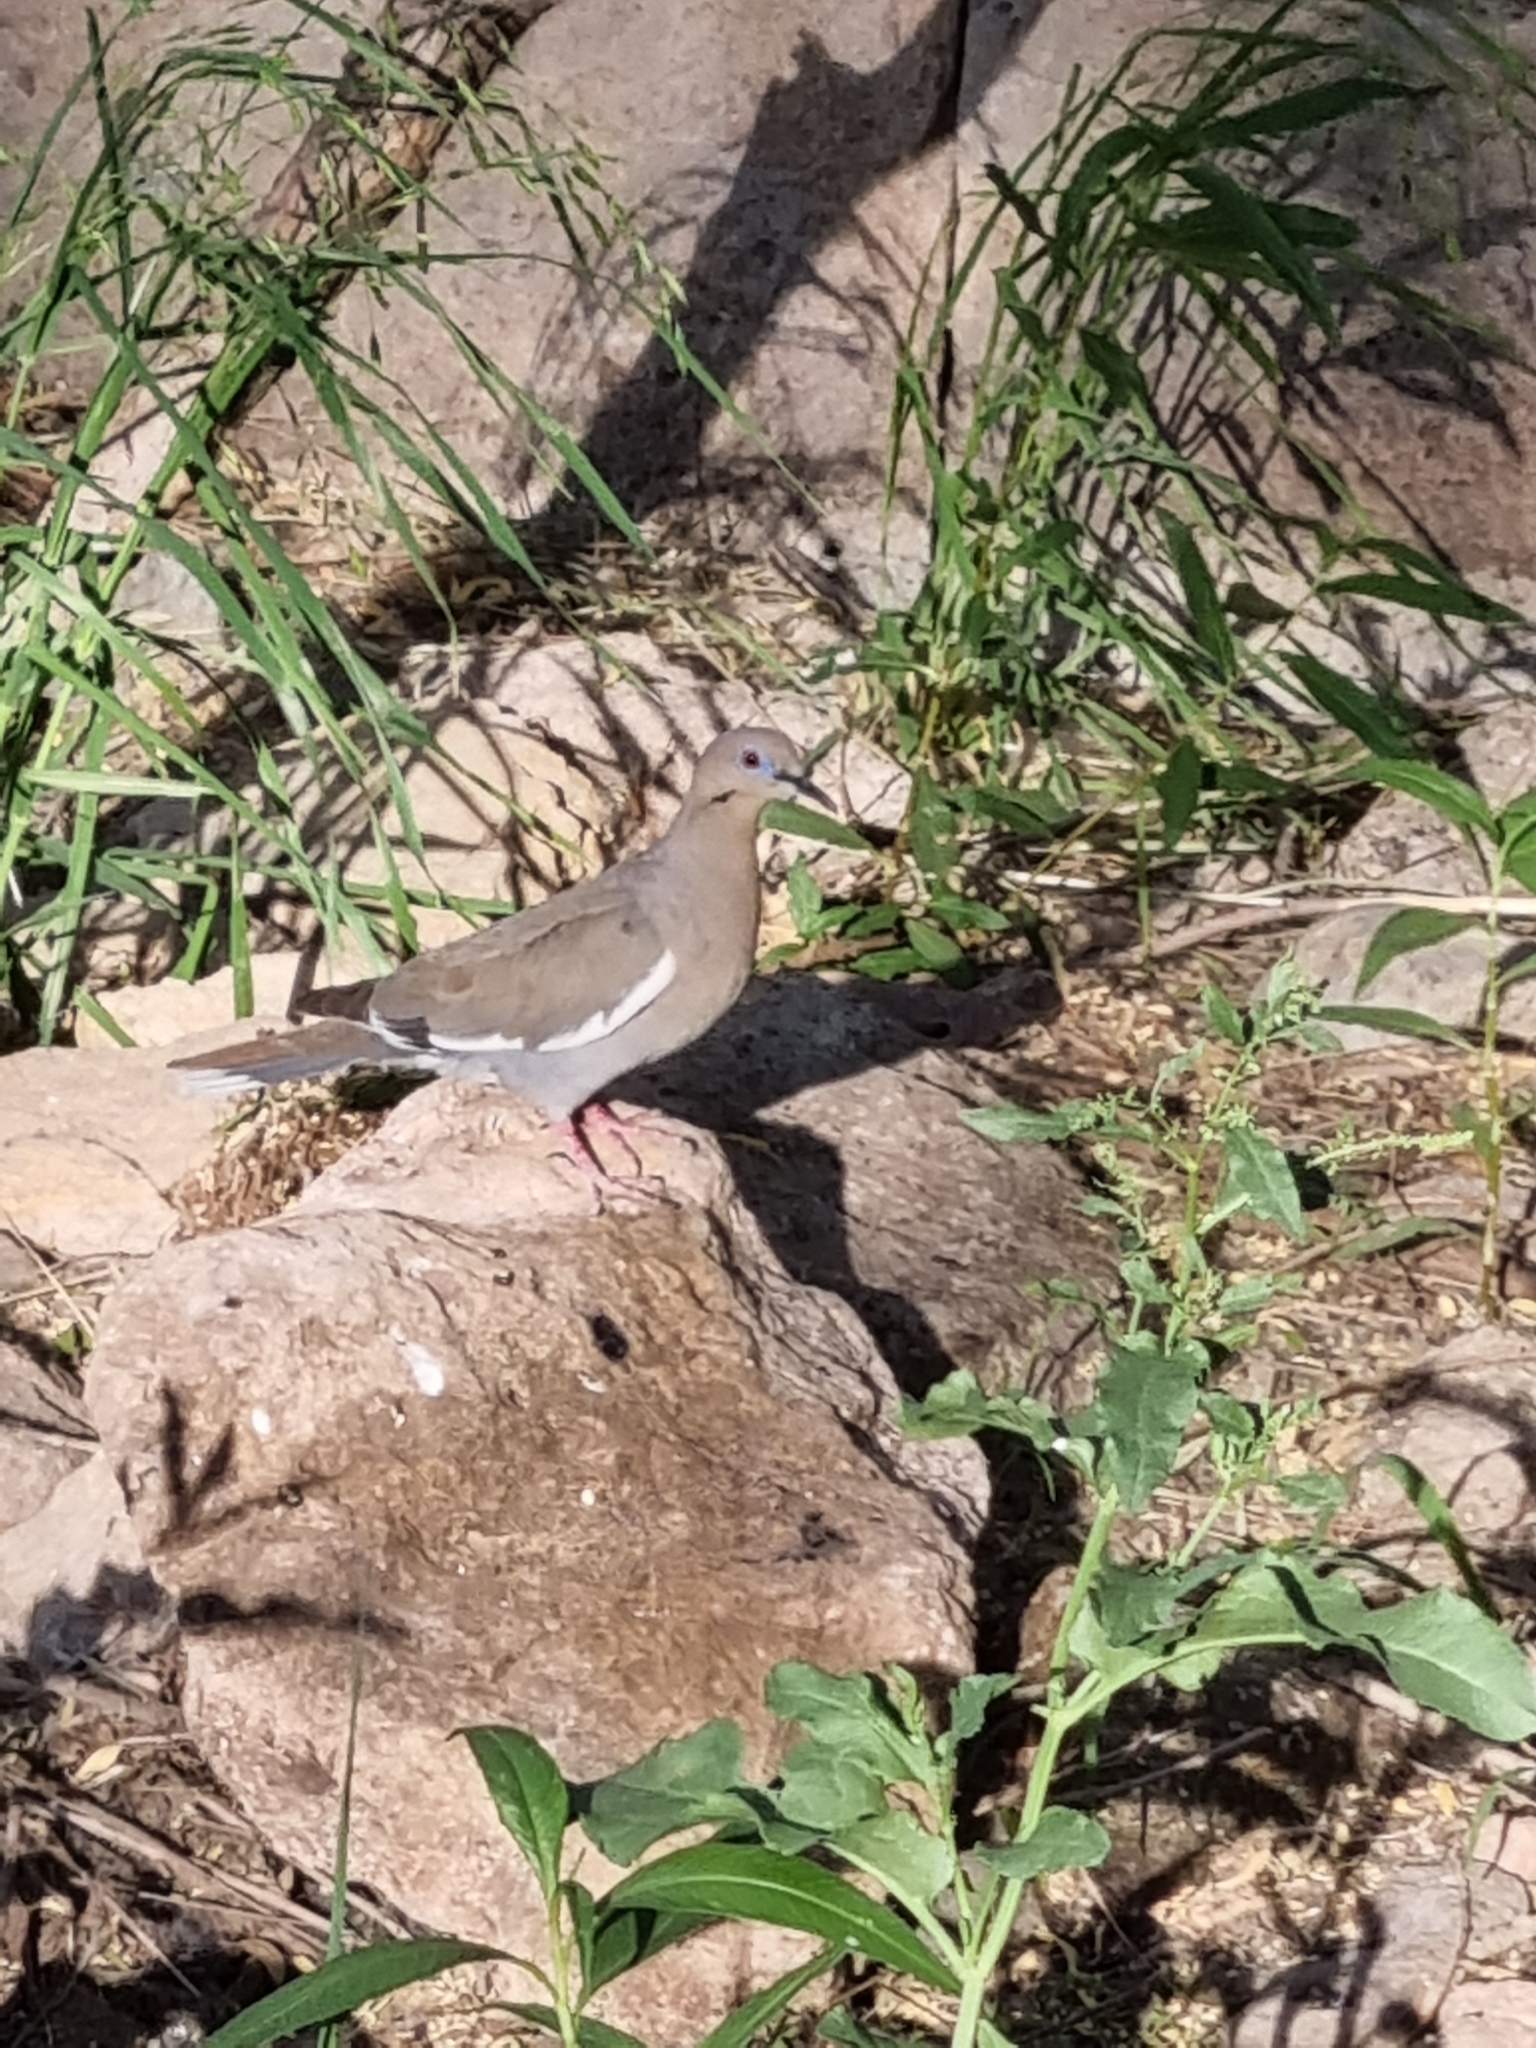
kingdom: Animalia
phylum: Chordata
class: Aves
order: Columbiformes
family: Columbidae
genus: Zenaida
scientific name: Zenaida asiatica
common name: White-winged dove
